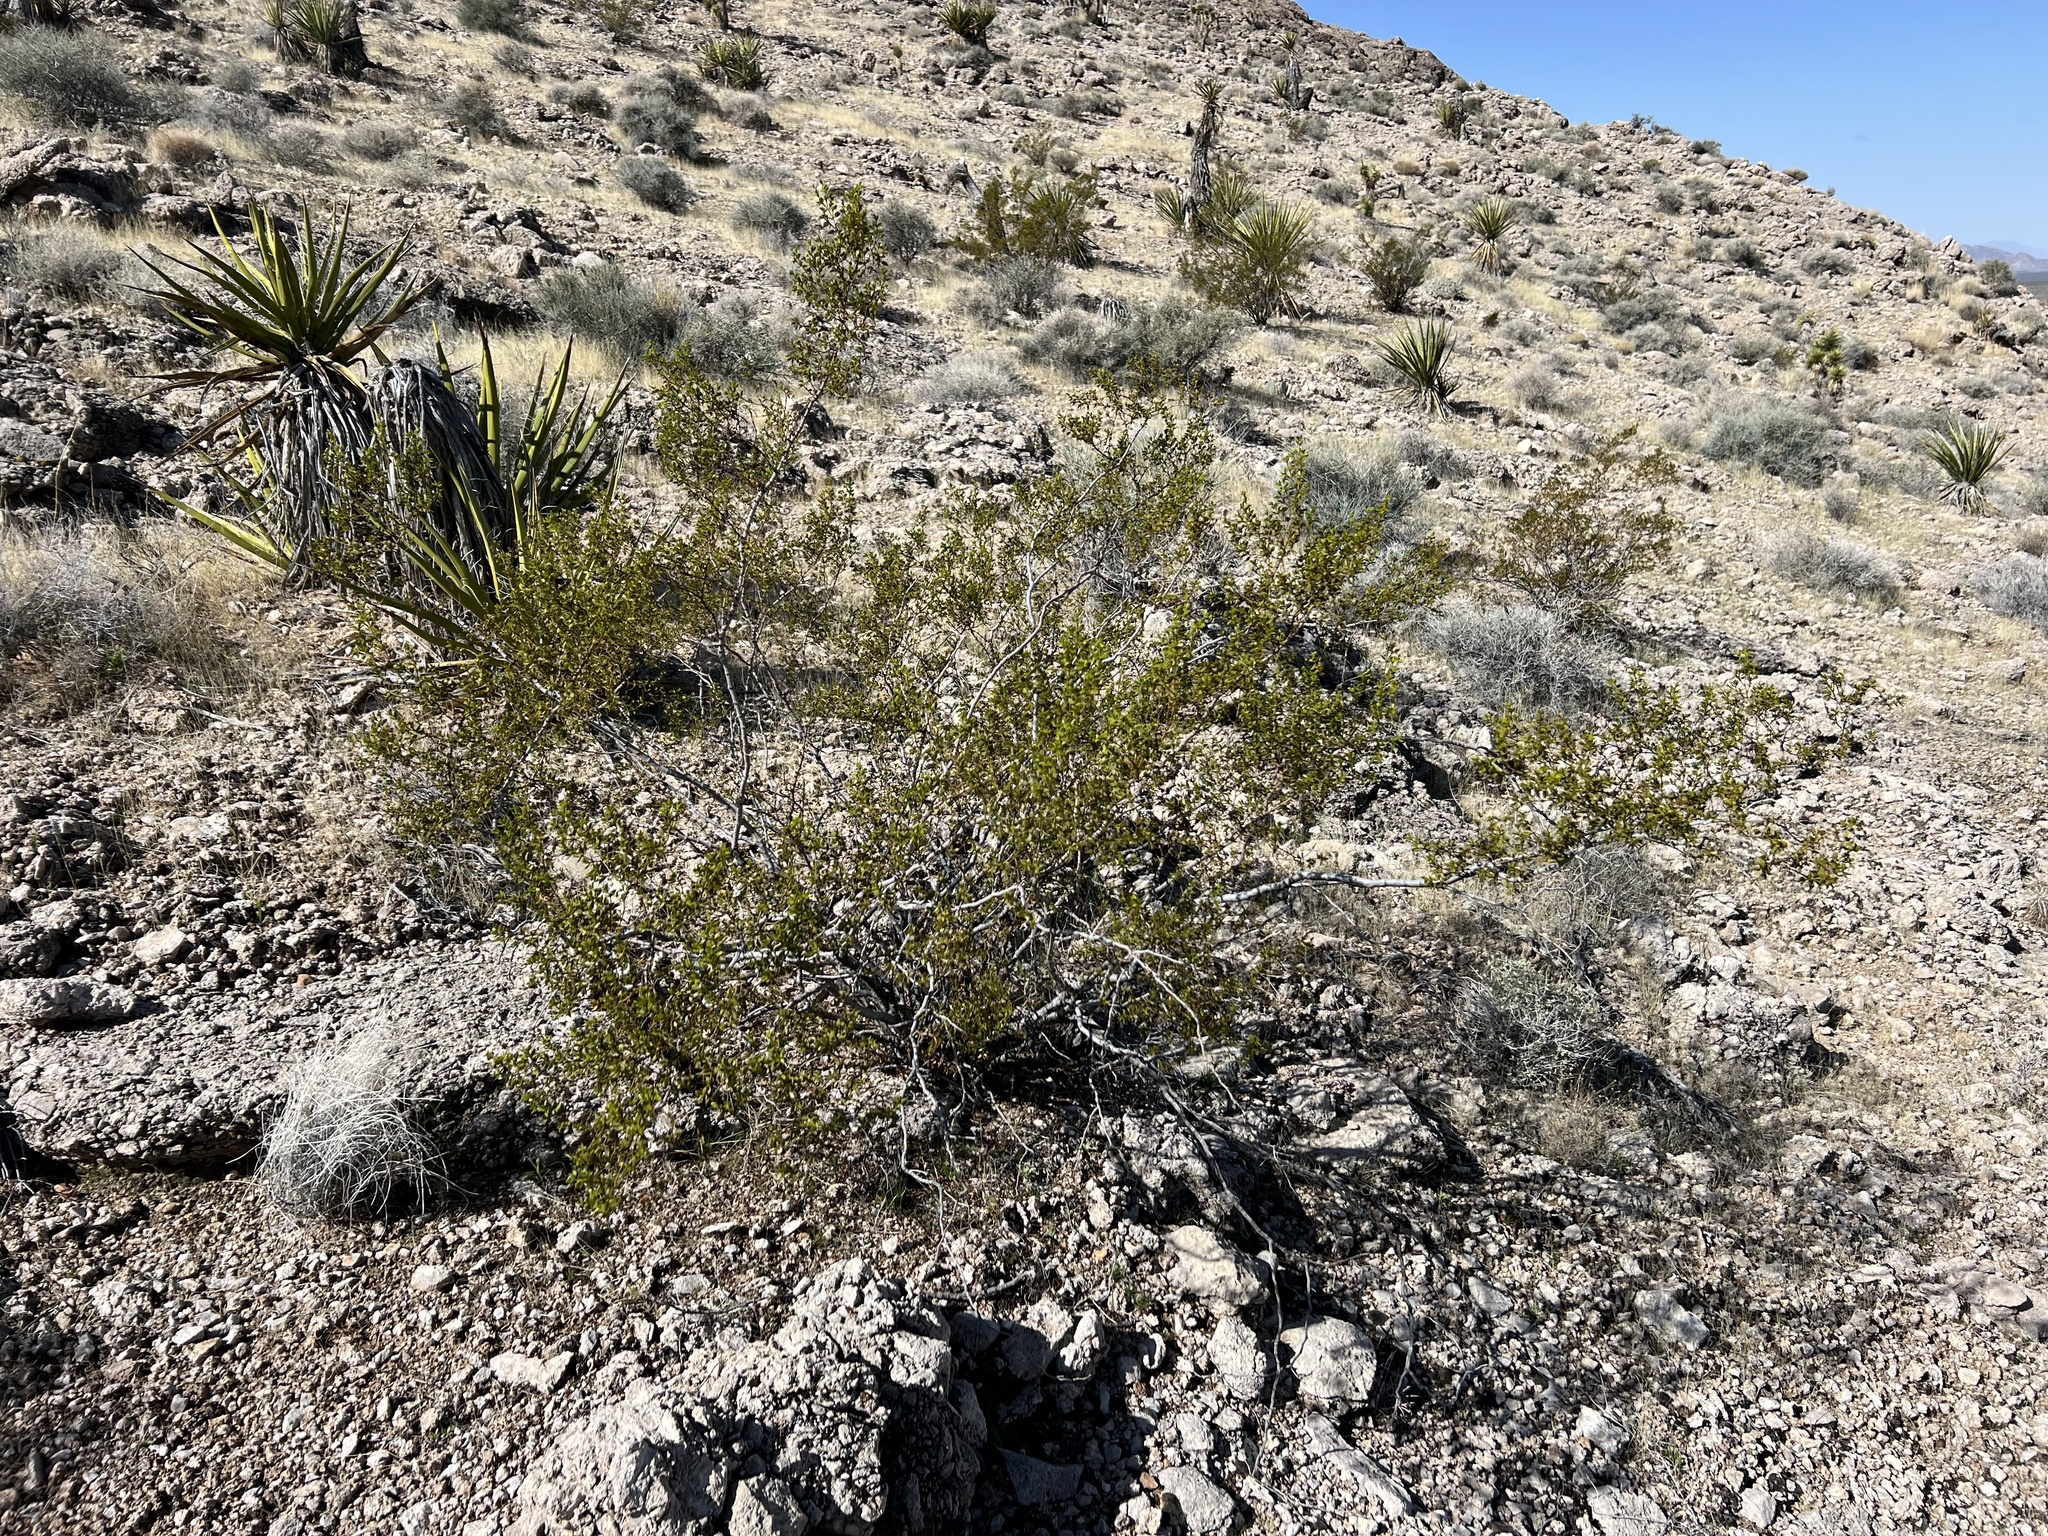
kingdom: Plantae
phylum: Tracheophyta
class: Magnoliopsida
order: Zygophyllales
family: Zygophyllaceae
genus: Larrea
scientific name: Larrea tridentata
